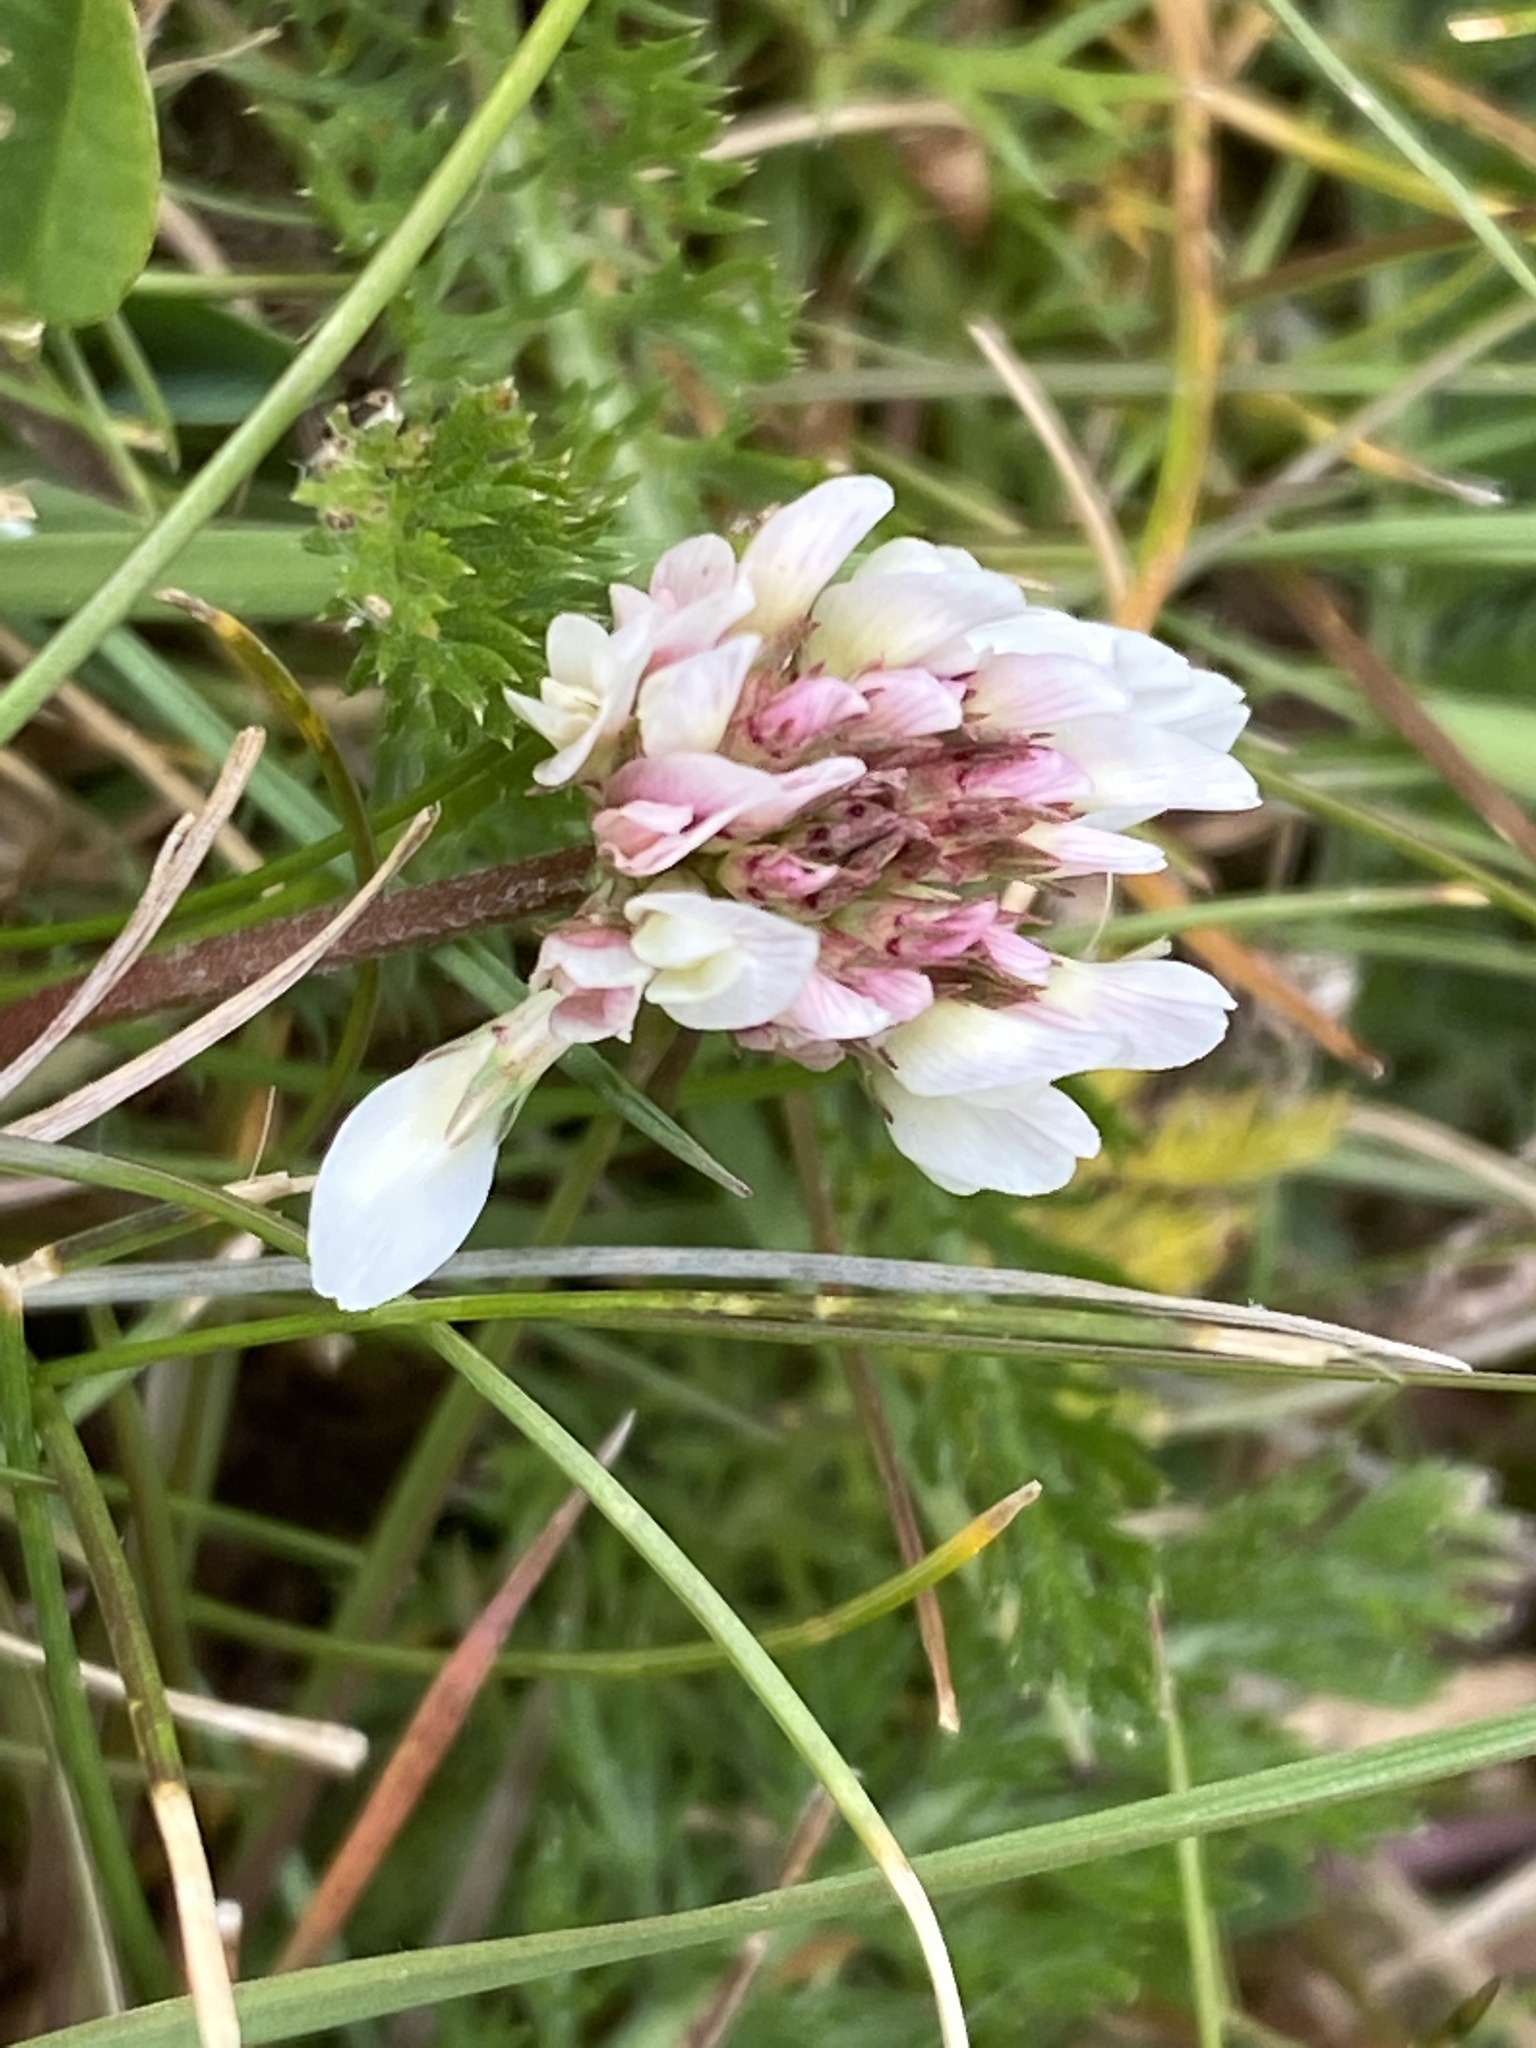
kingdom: Plantae
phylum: Tracheophyta
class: Magnoliopsida
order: Fabales
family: Fabaceae
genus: Trifolium
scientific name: Trifolium repens
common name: White clover
